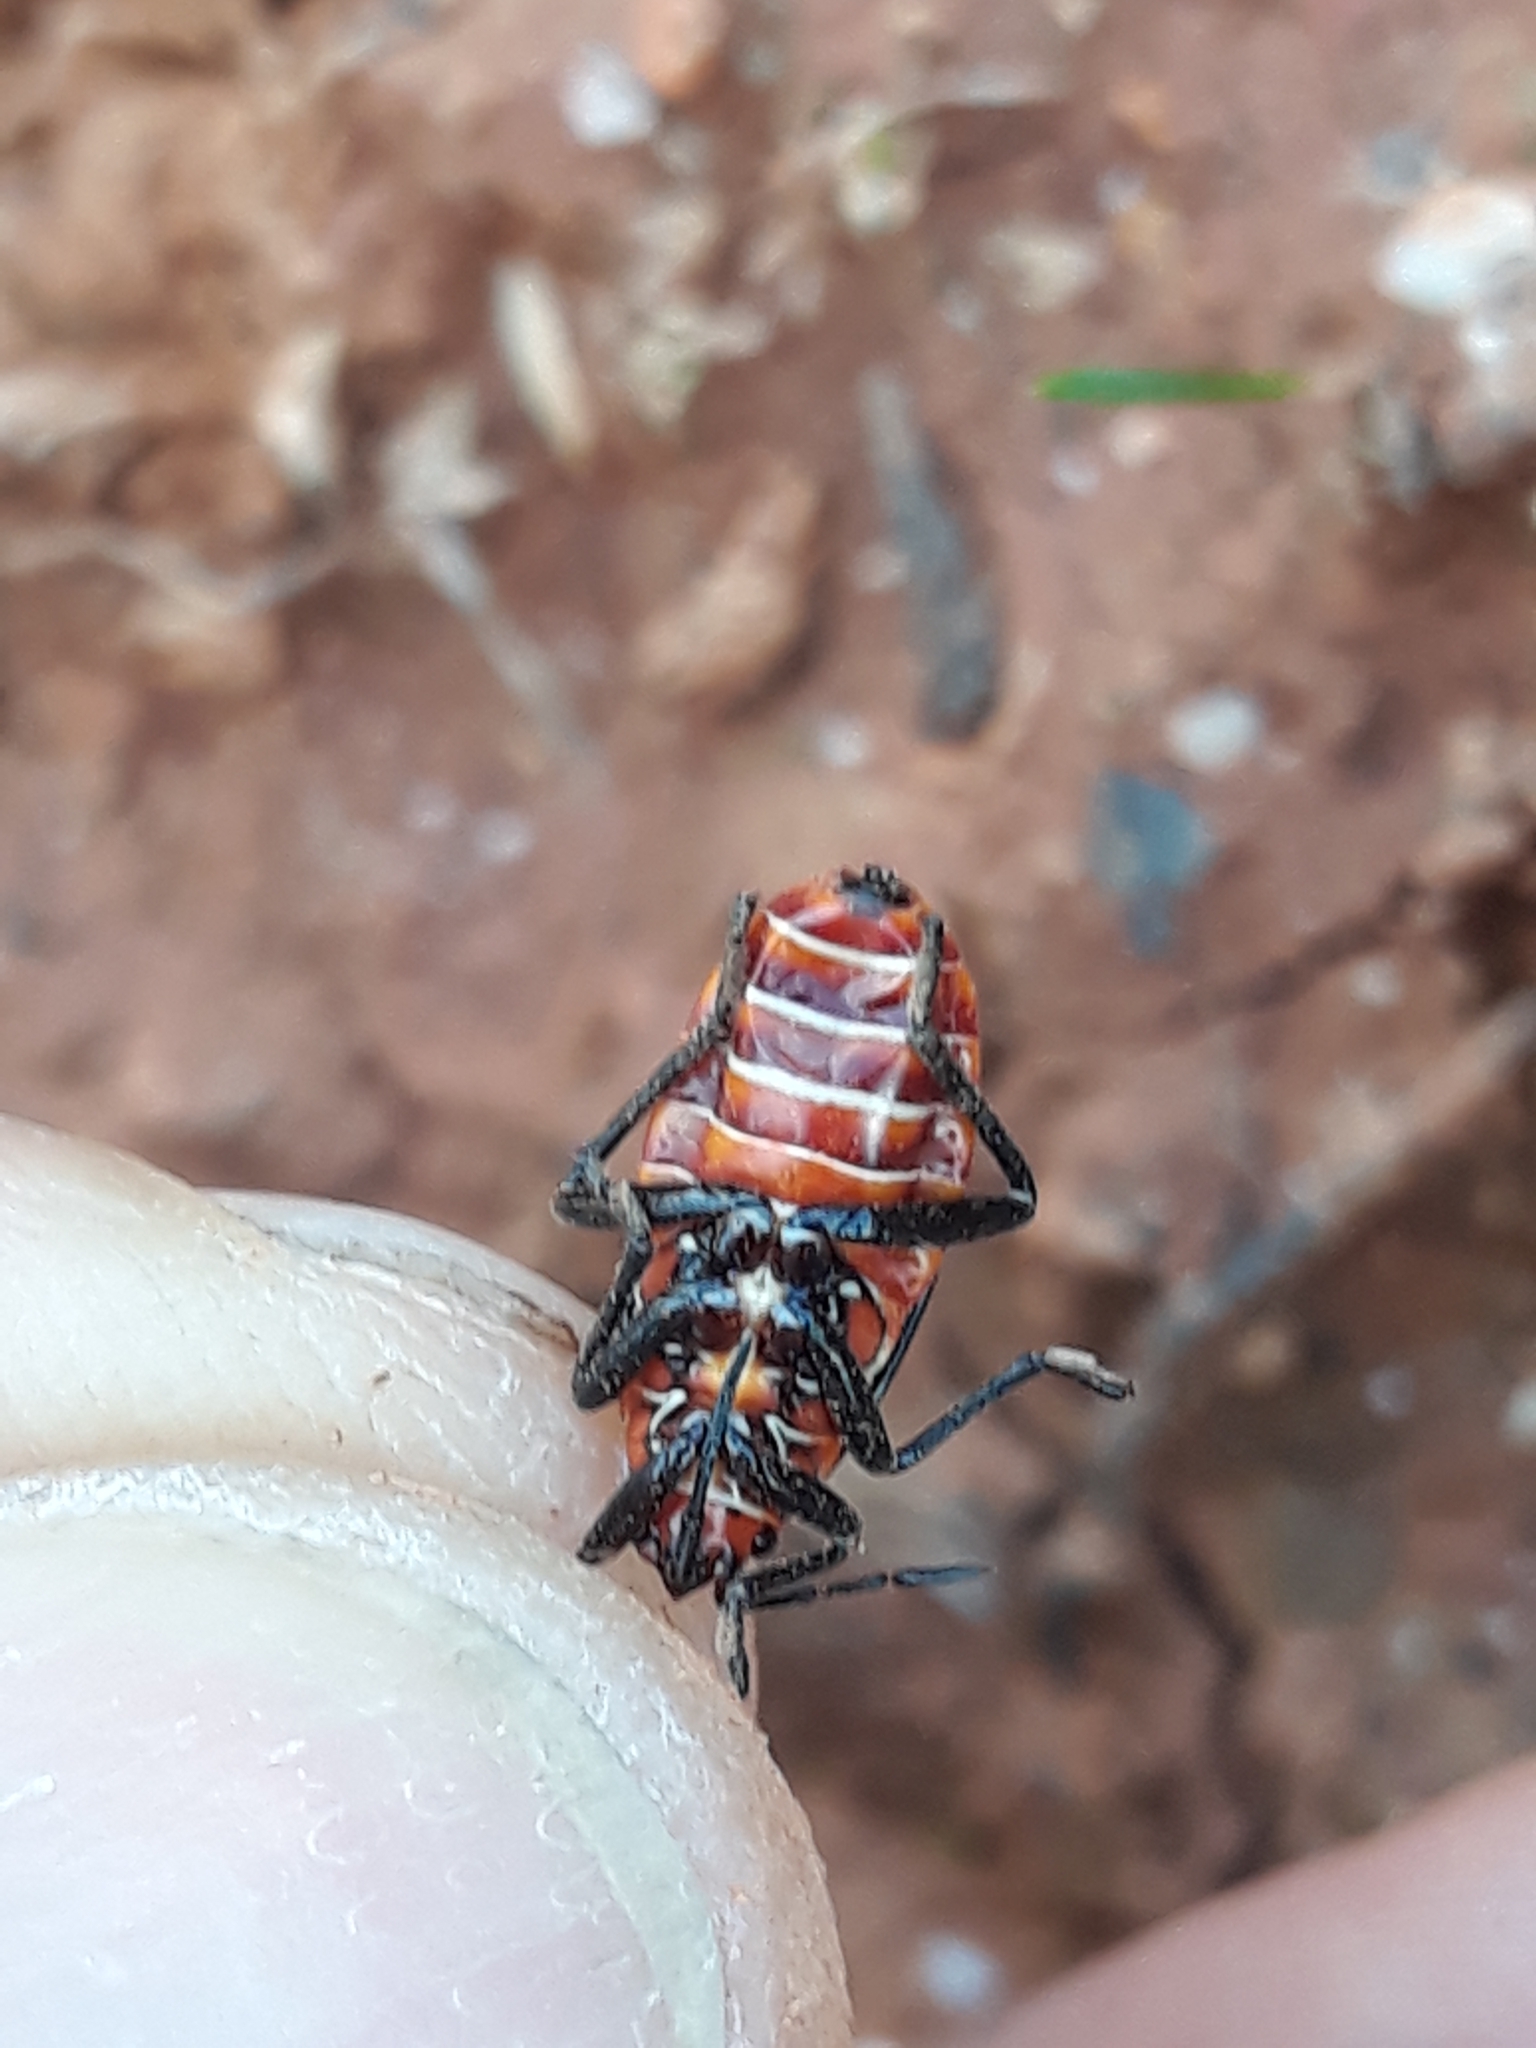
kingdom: Animalia
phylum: Arthropoda
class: Insecta
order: Hemiptera
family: Lygaeidae
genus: Spilostethus
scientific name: Spilostethus pandurus
